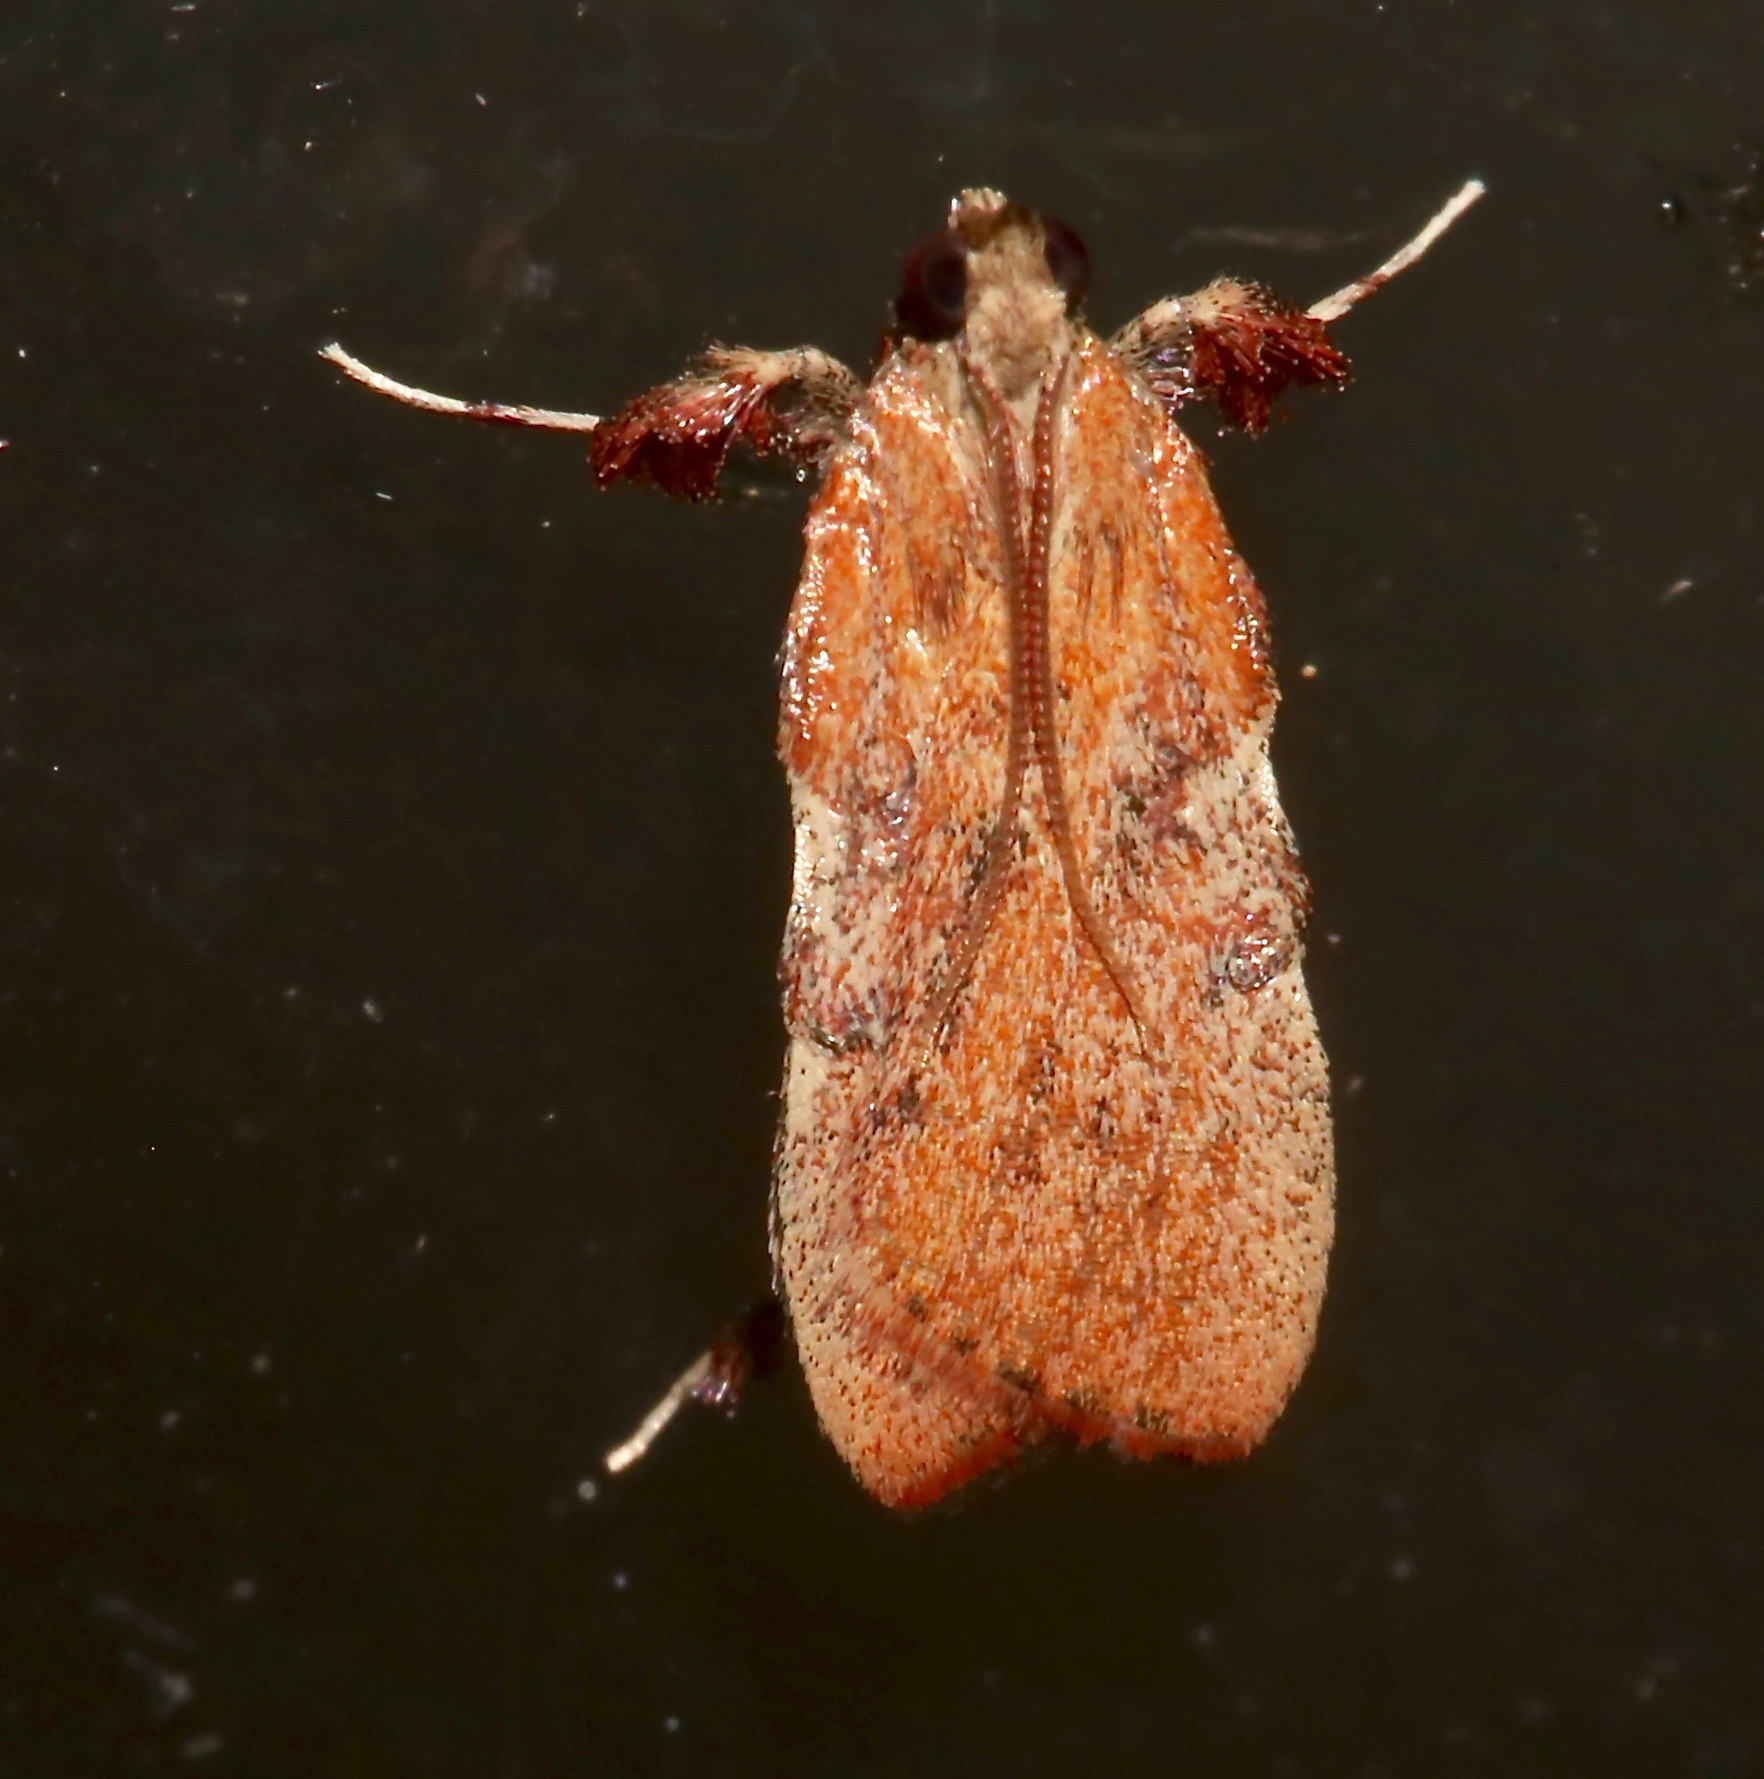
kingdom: Animalia
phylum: Arthropoda
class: Insecta
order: Lepidoptera
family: Pyralidae
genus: Galasa
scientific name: Galasa nigripunctalis
